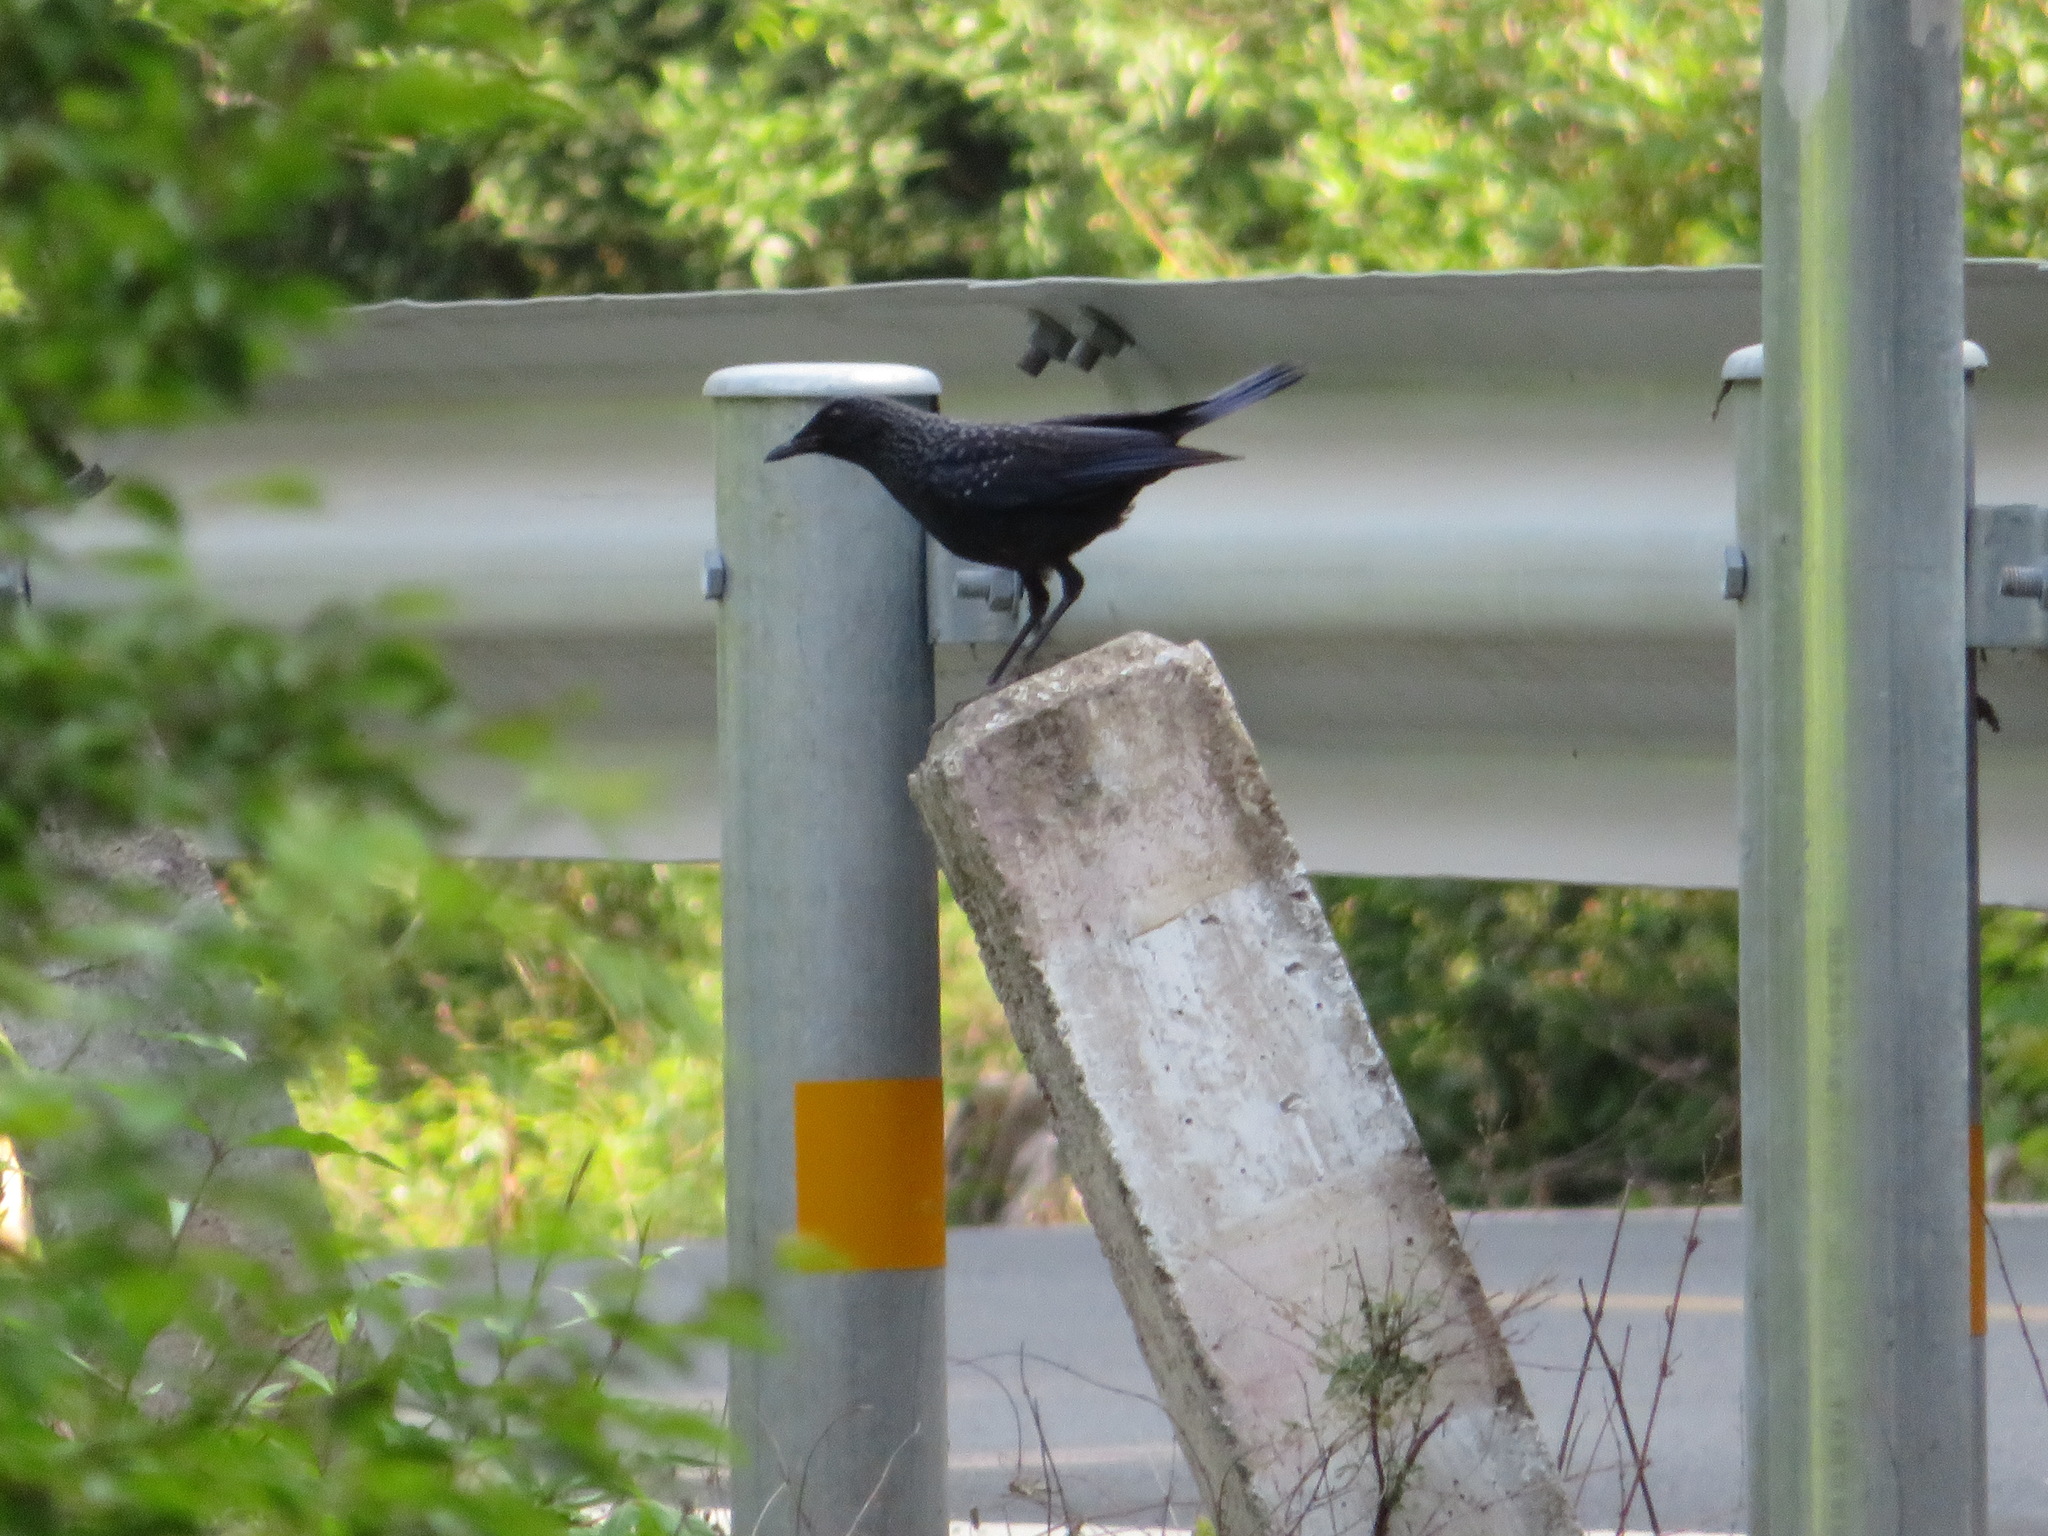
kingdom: Animalia
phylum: Chordata
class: Aves
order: Passeriformes
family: Muscicapidae
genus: Myophonus
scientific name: Myophonus caeruleus
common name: Blue whistling-thrush
